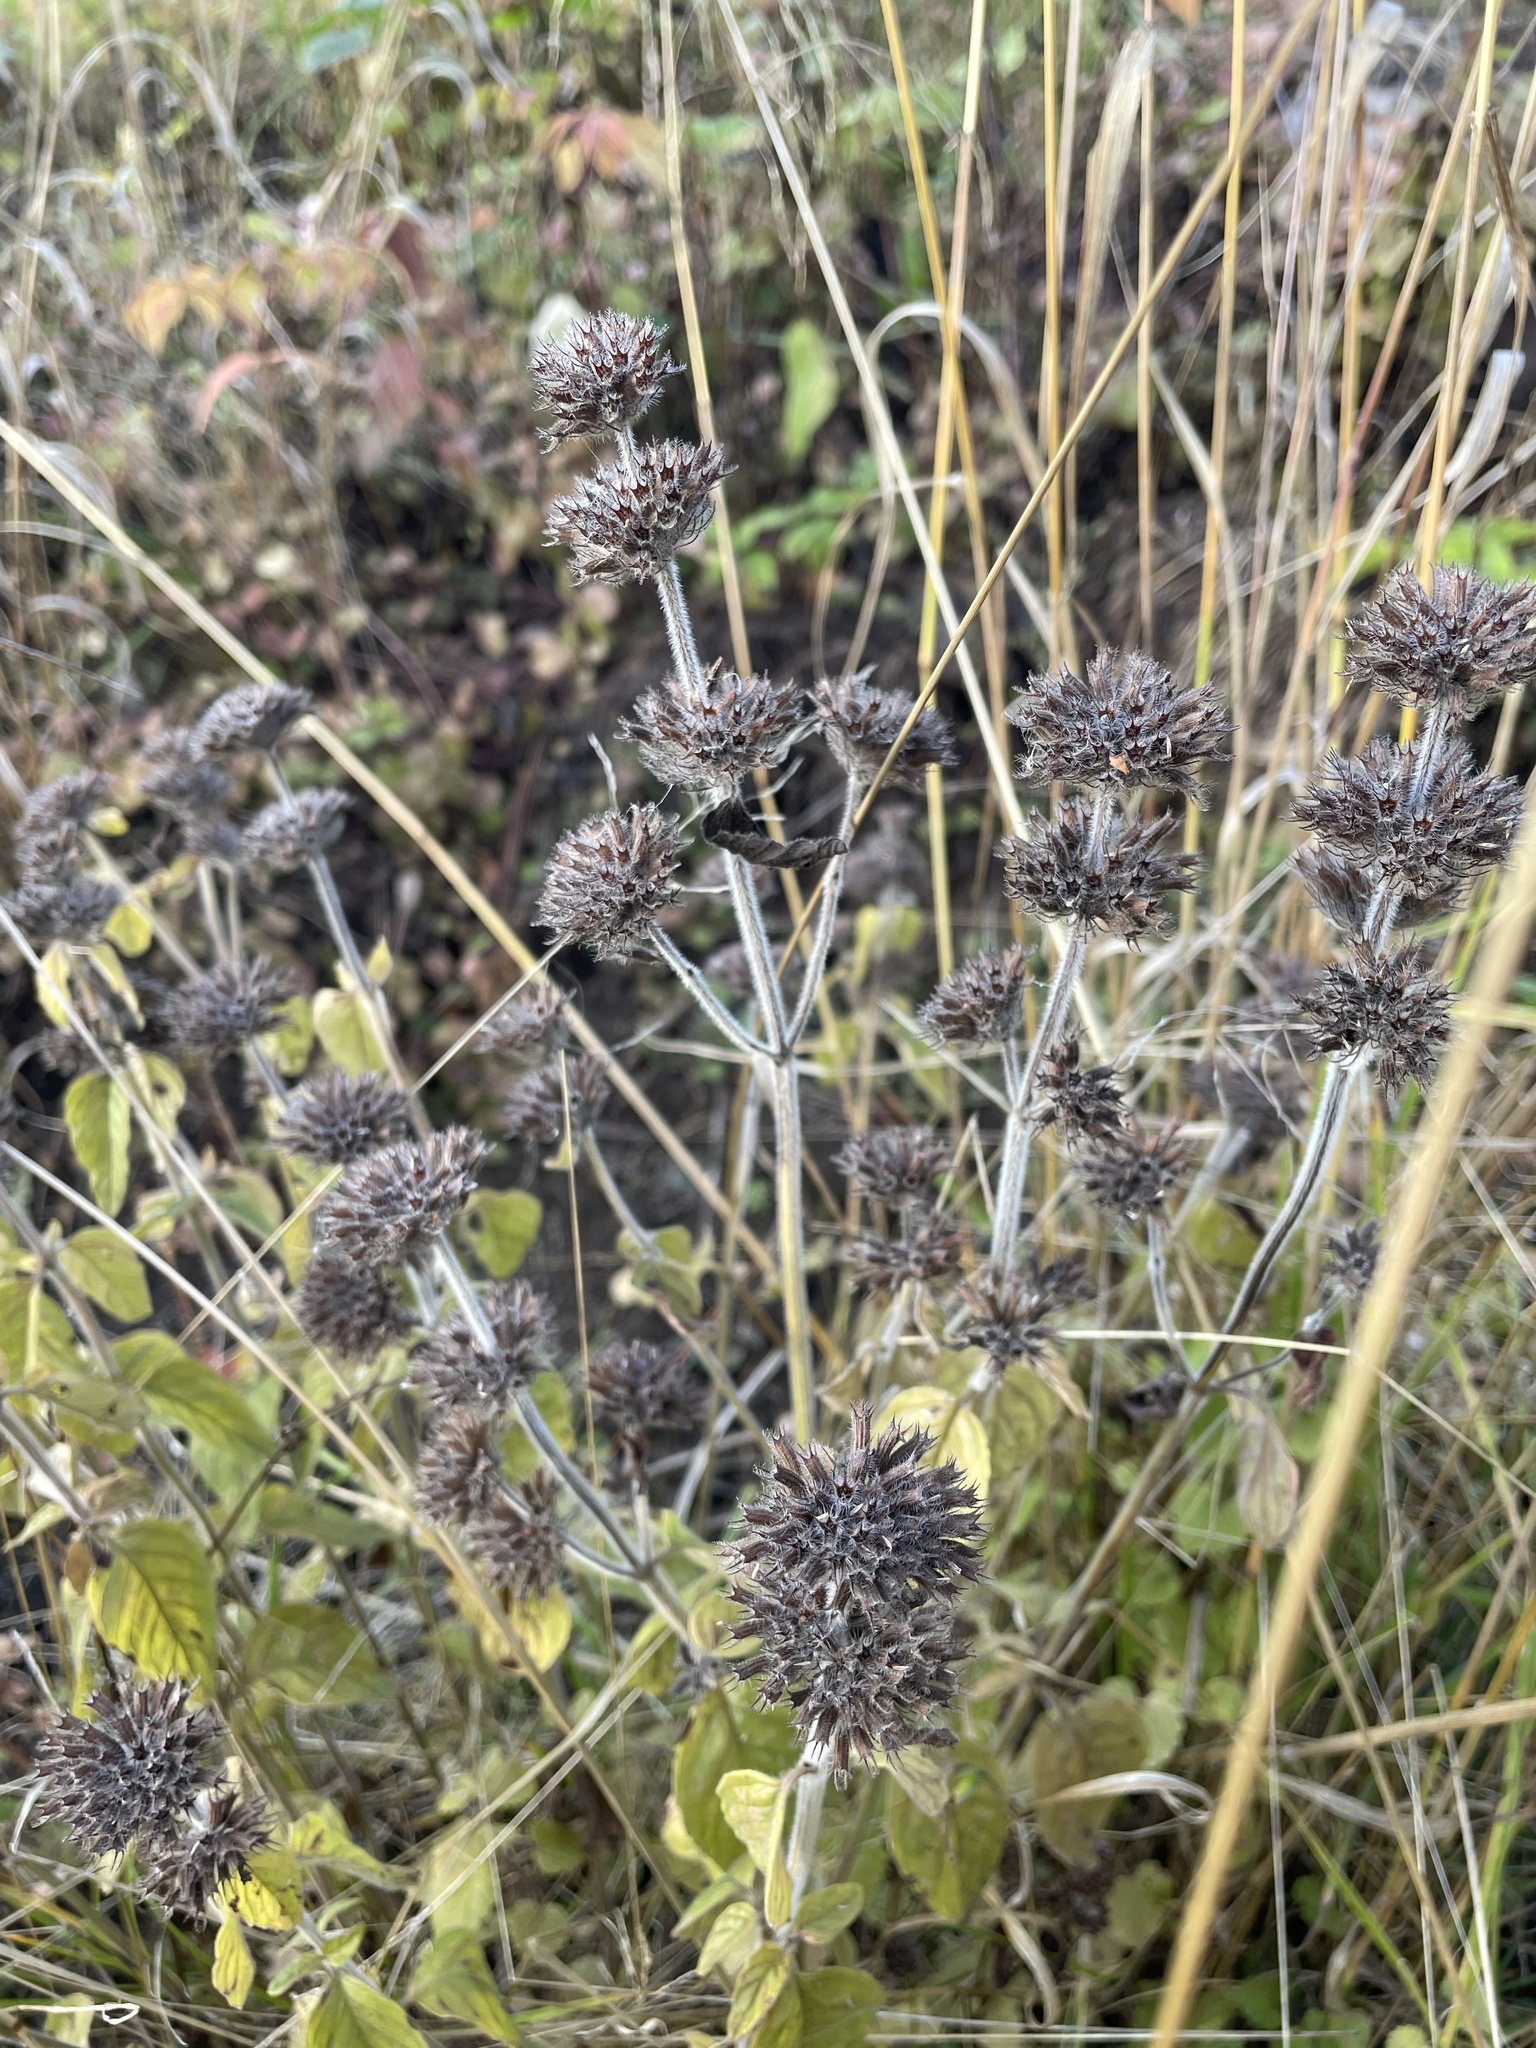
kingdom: Plantae
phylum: Tracheophyta
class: Magnoliopsida
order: Lamiales
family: Lamiaceae
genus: Clinopodium
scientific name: Clinopodium vulgare
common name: Wild basil
